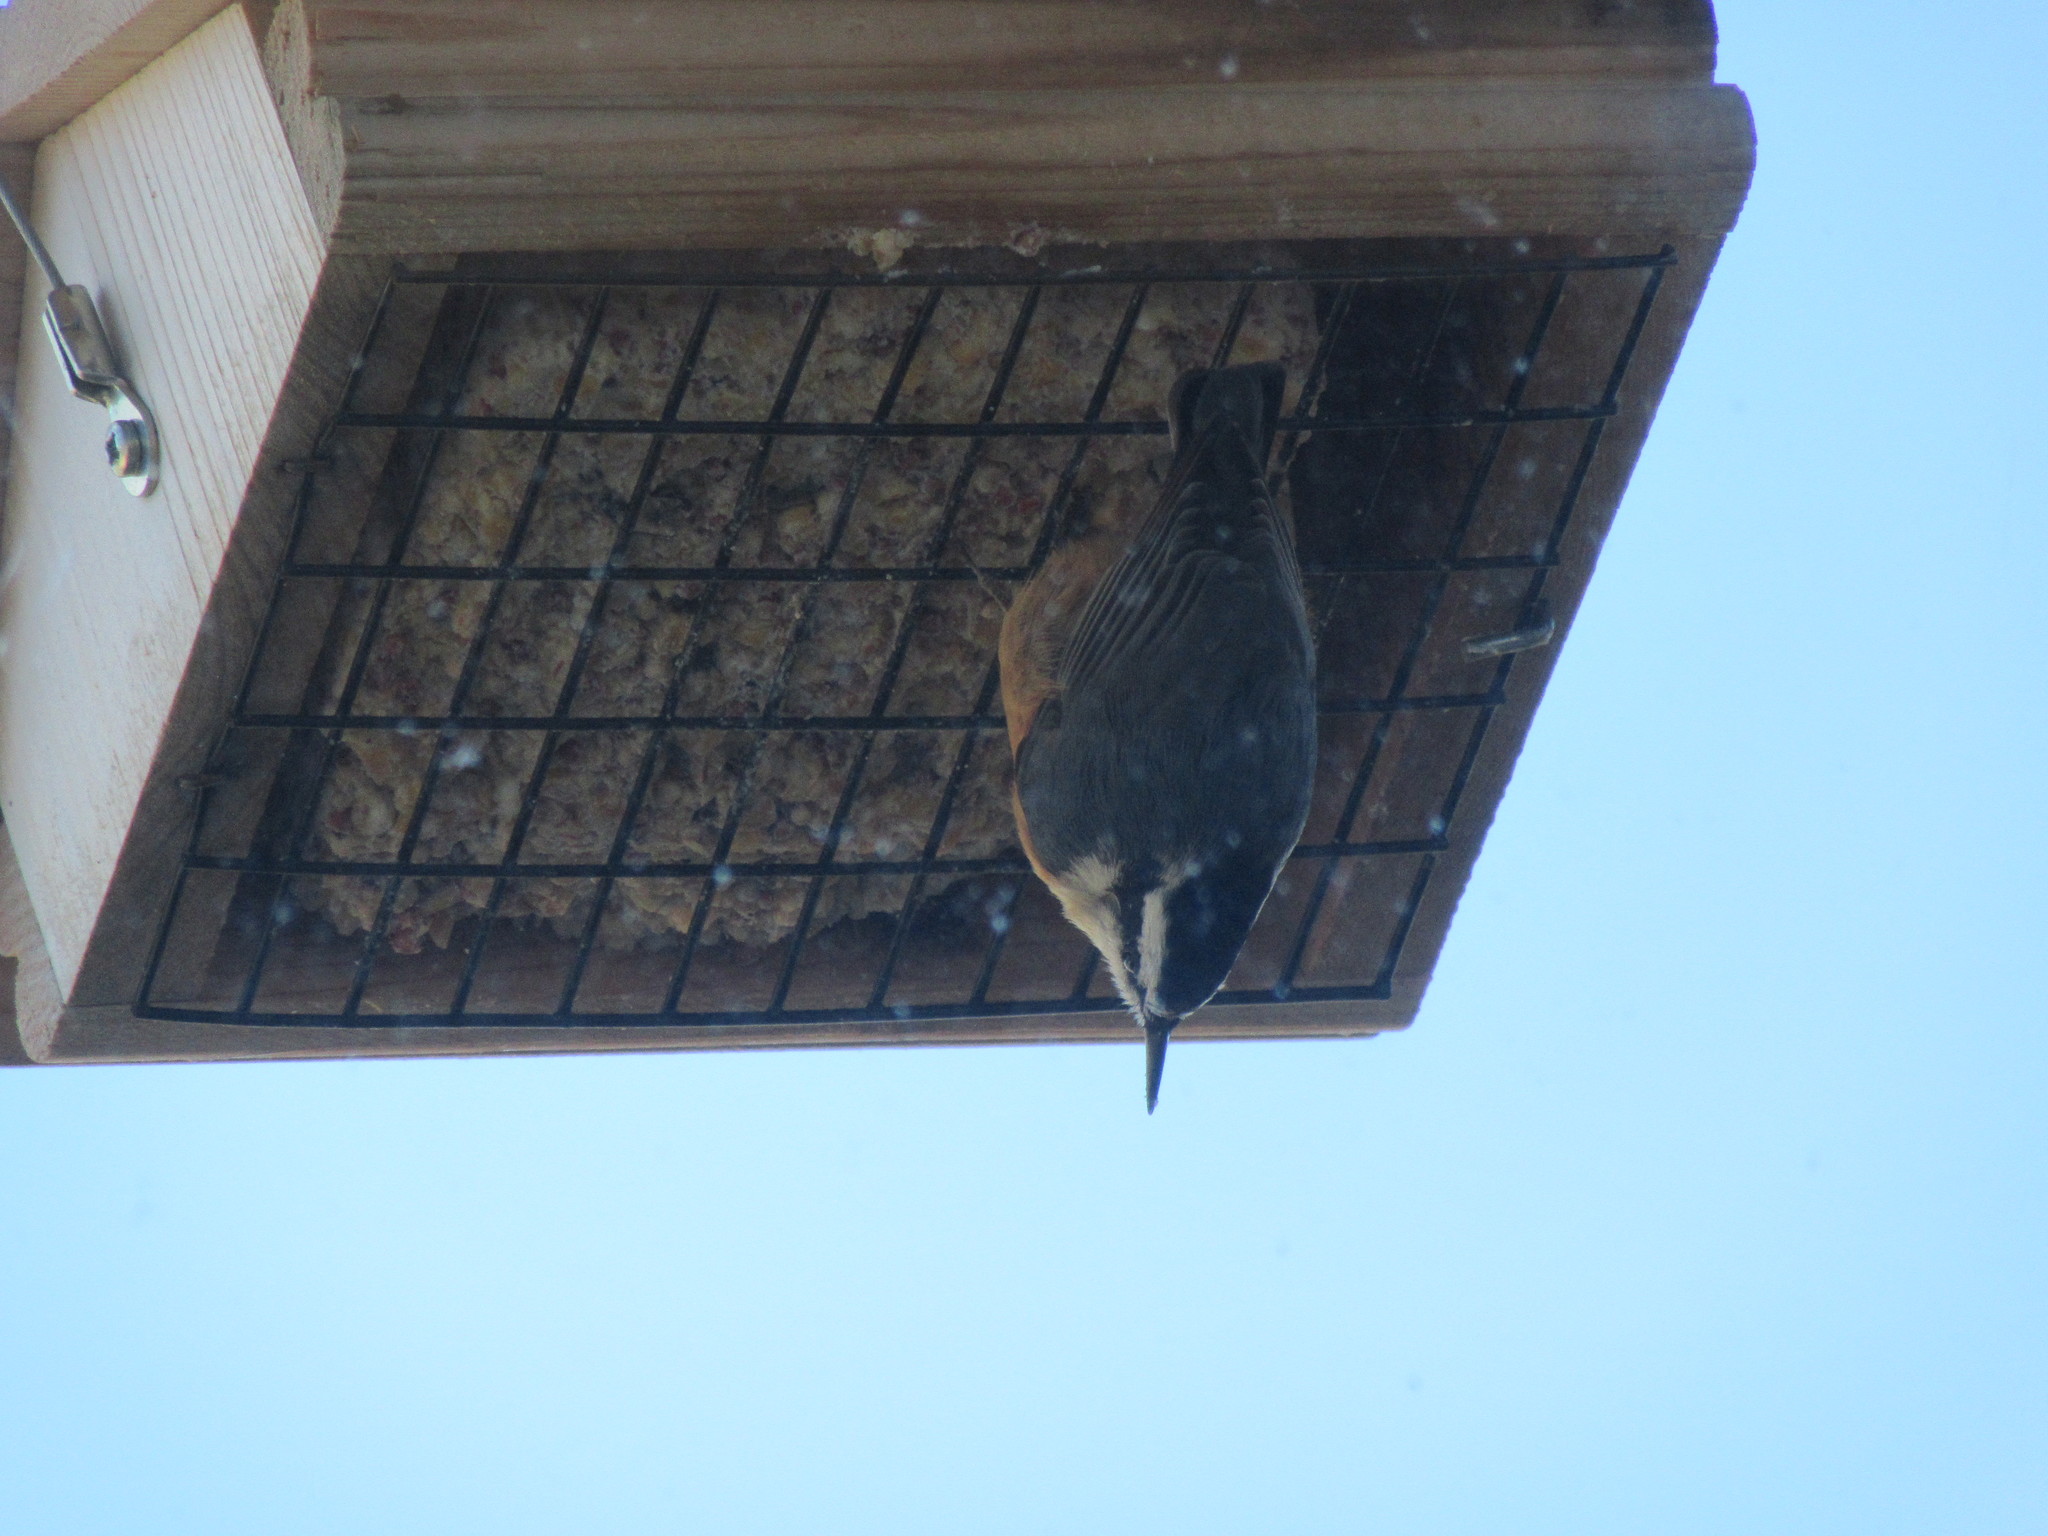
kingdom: Animalia
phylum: Chordata
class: Aves
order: Passeriformes
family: Sittidae
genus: Sitta
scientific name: Sitta canadensis
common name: Red-breasted nuthatch
